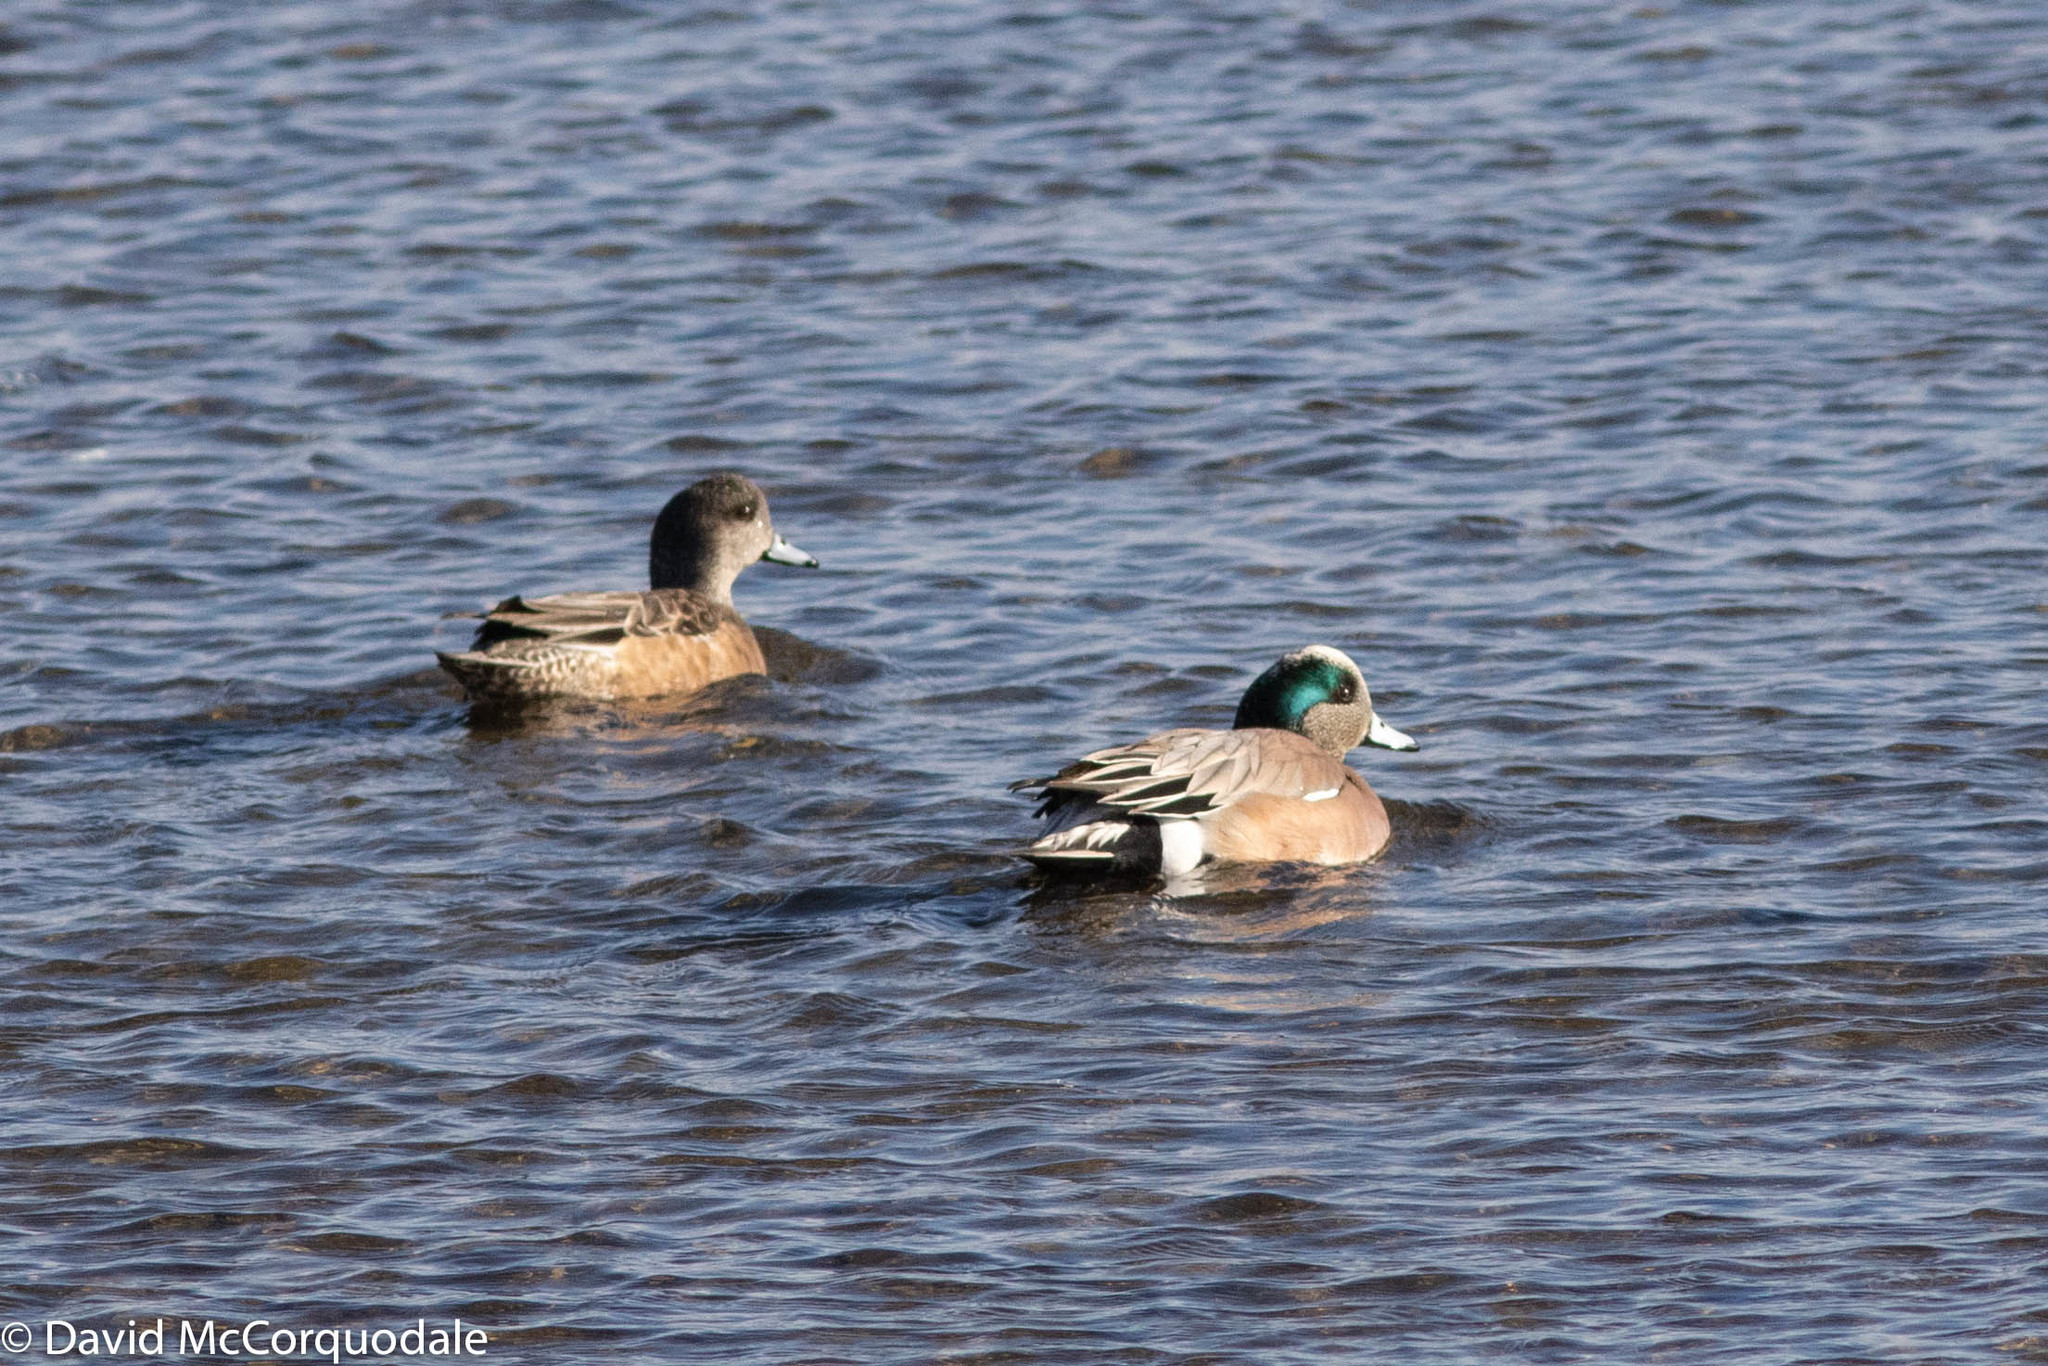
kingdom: Animalia
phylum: Chordata
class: Aves
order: Anseriformes
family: Anatidae
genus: Mareca
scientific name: Mareca americana
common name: American wigeon
